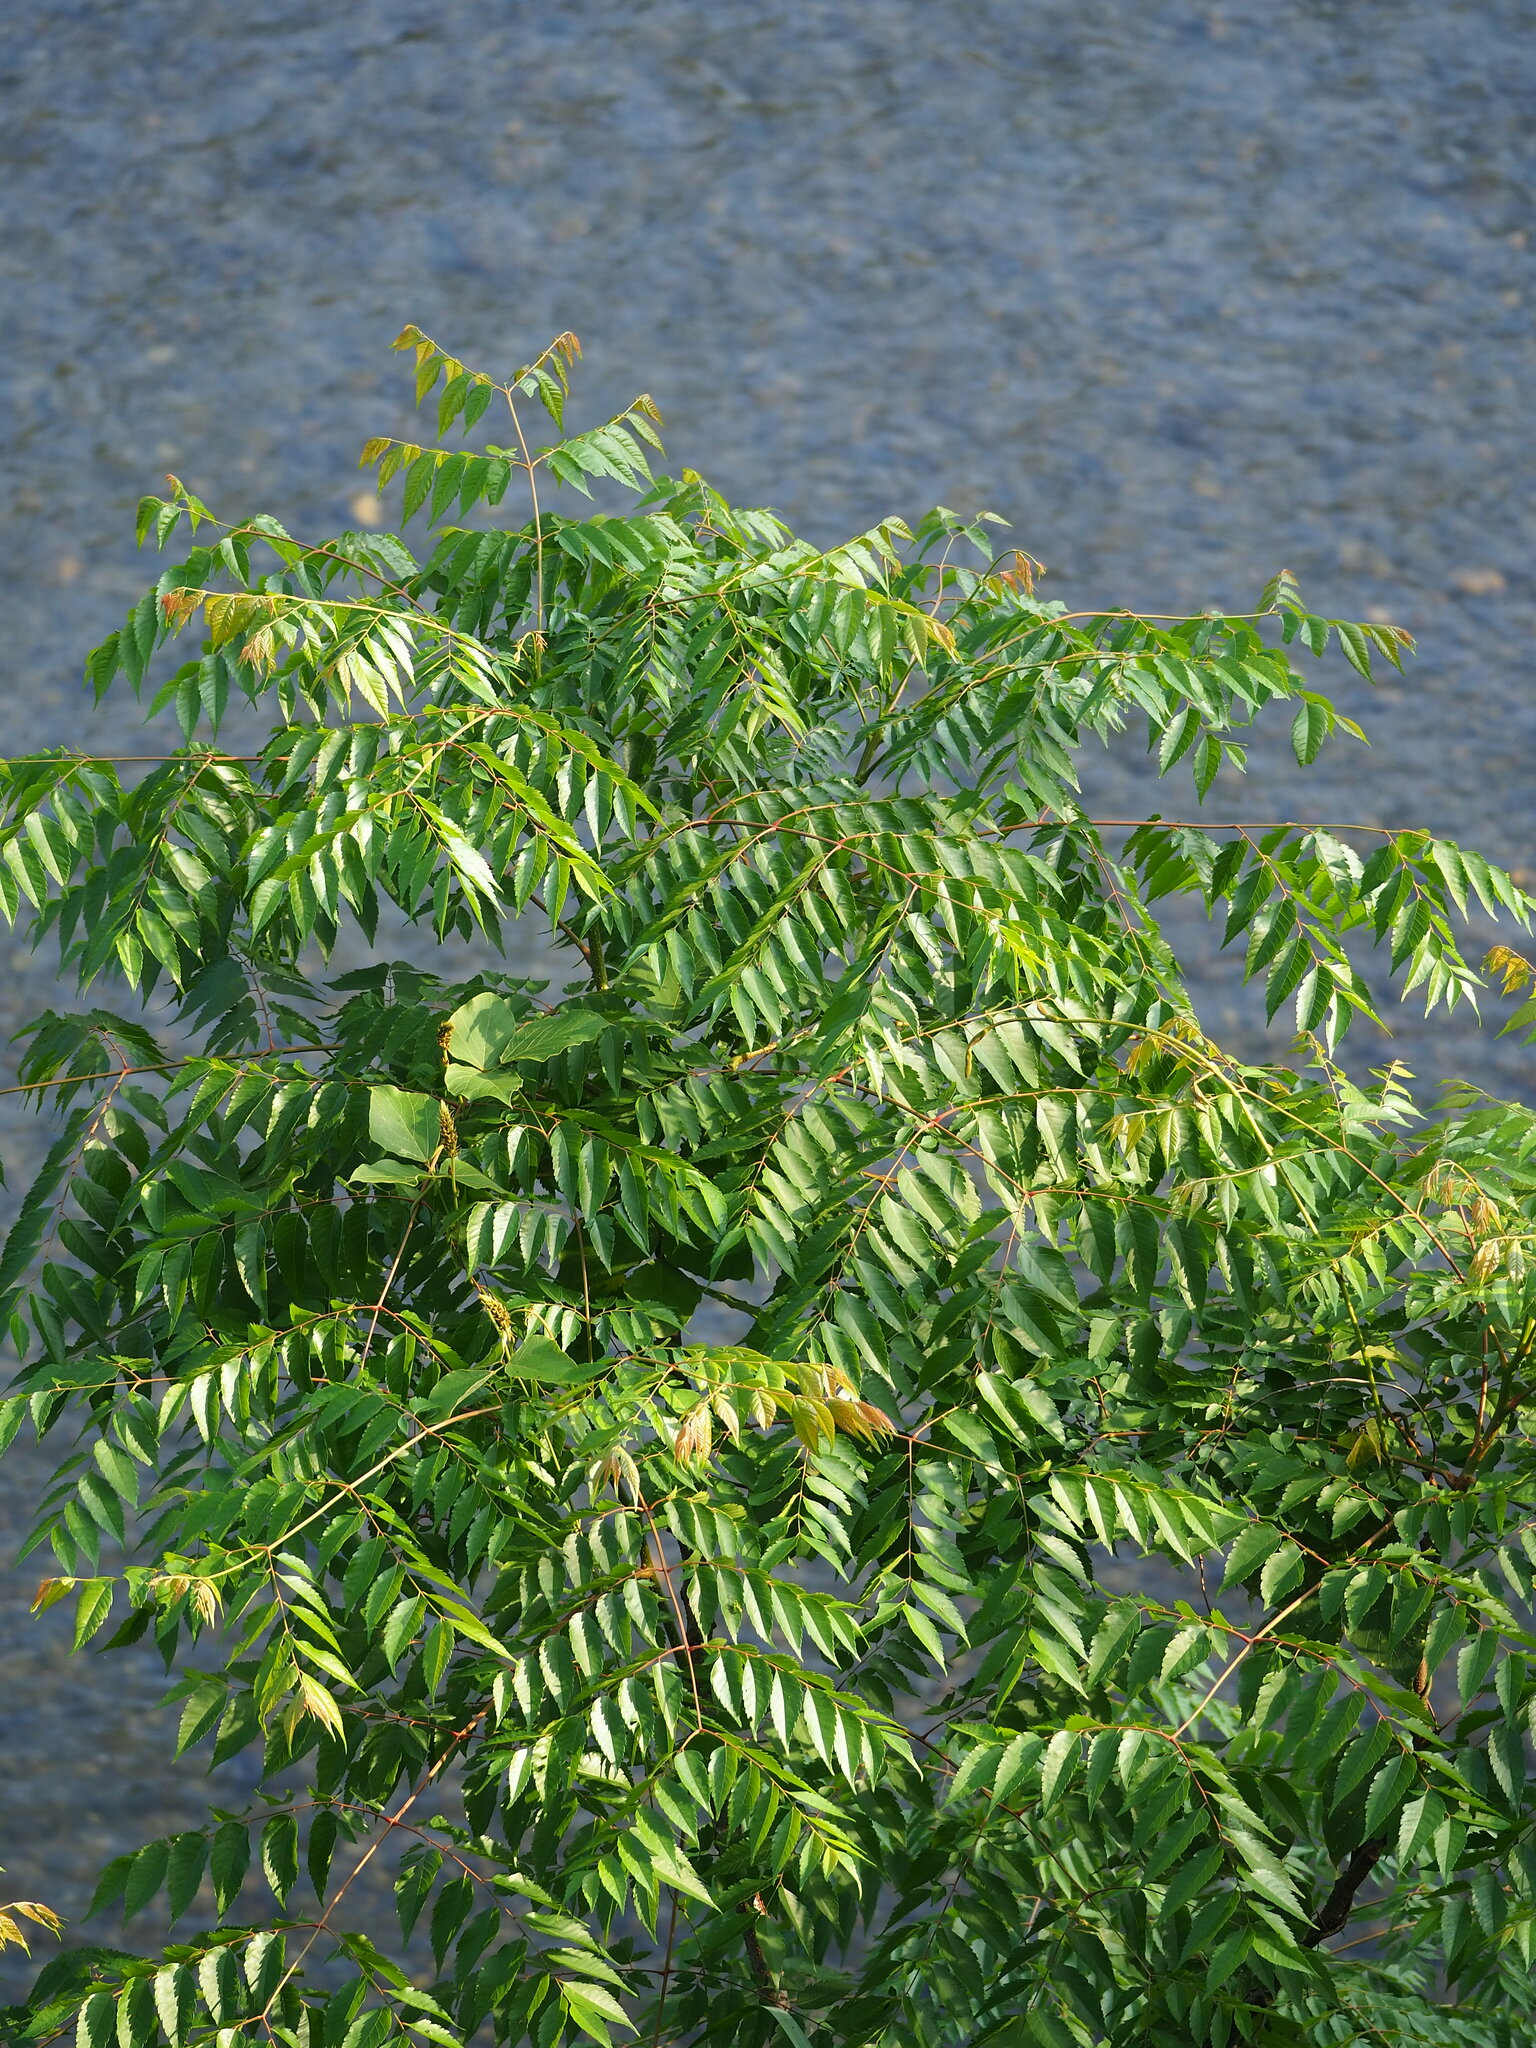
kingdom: Plantae
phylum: Tracheophyta
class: Magnoliopsida
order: Sapindales
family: Sapindaceae
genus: Koelreuteria
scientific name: Koelreuteria elegans
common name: Chinese flame tree
